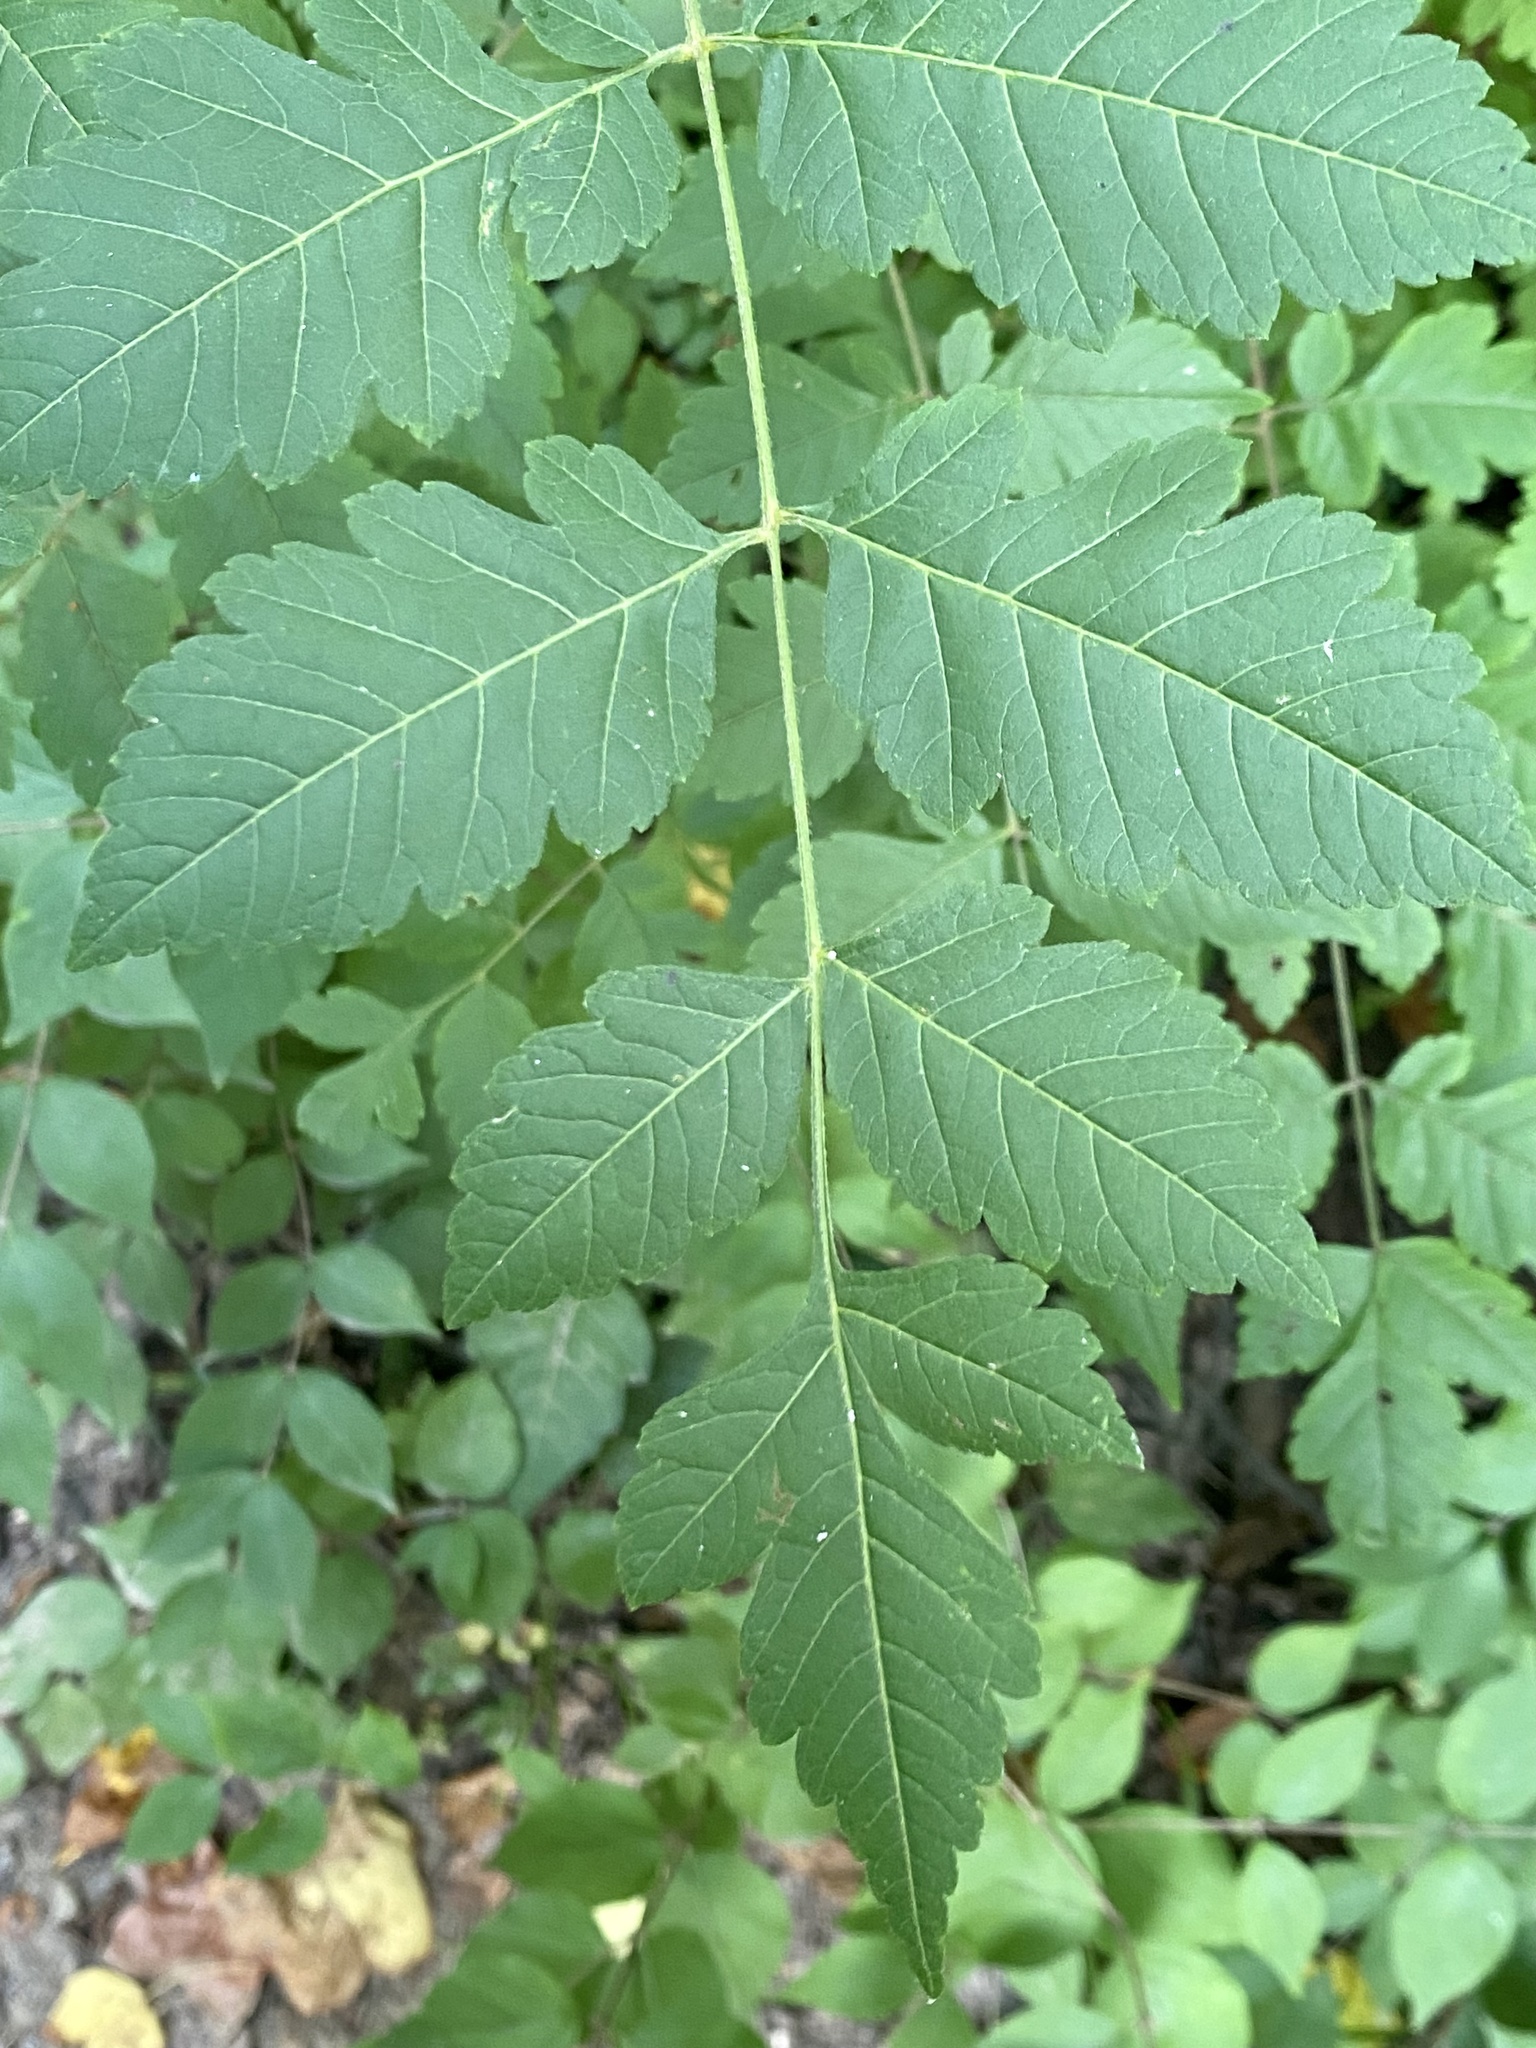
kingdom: Plantae
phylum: Tracheophyta
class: Magnoliopsida
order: Sapindales
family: Sapindaceae
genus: Koelreuteria
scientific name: Koelreuteria paniculata
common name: Pride-of-india
